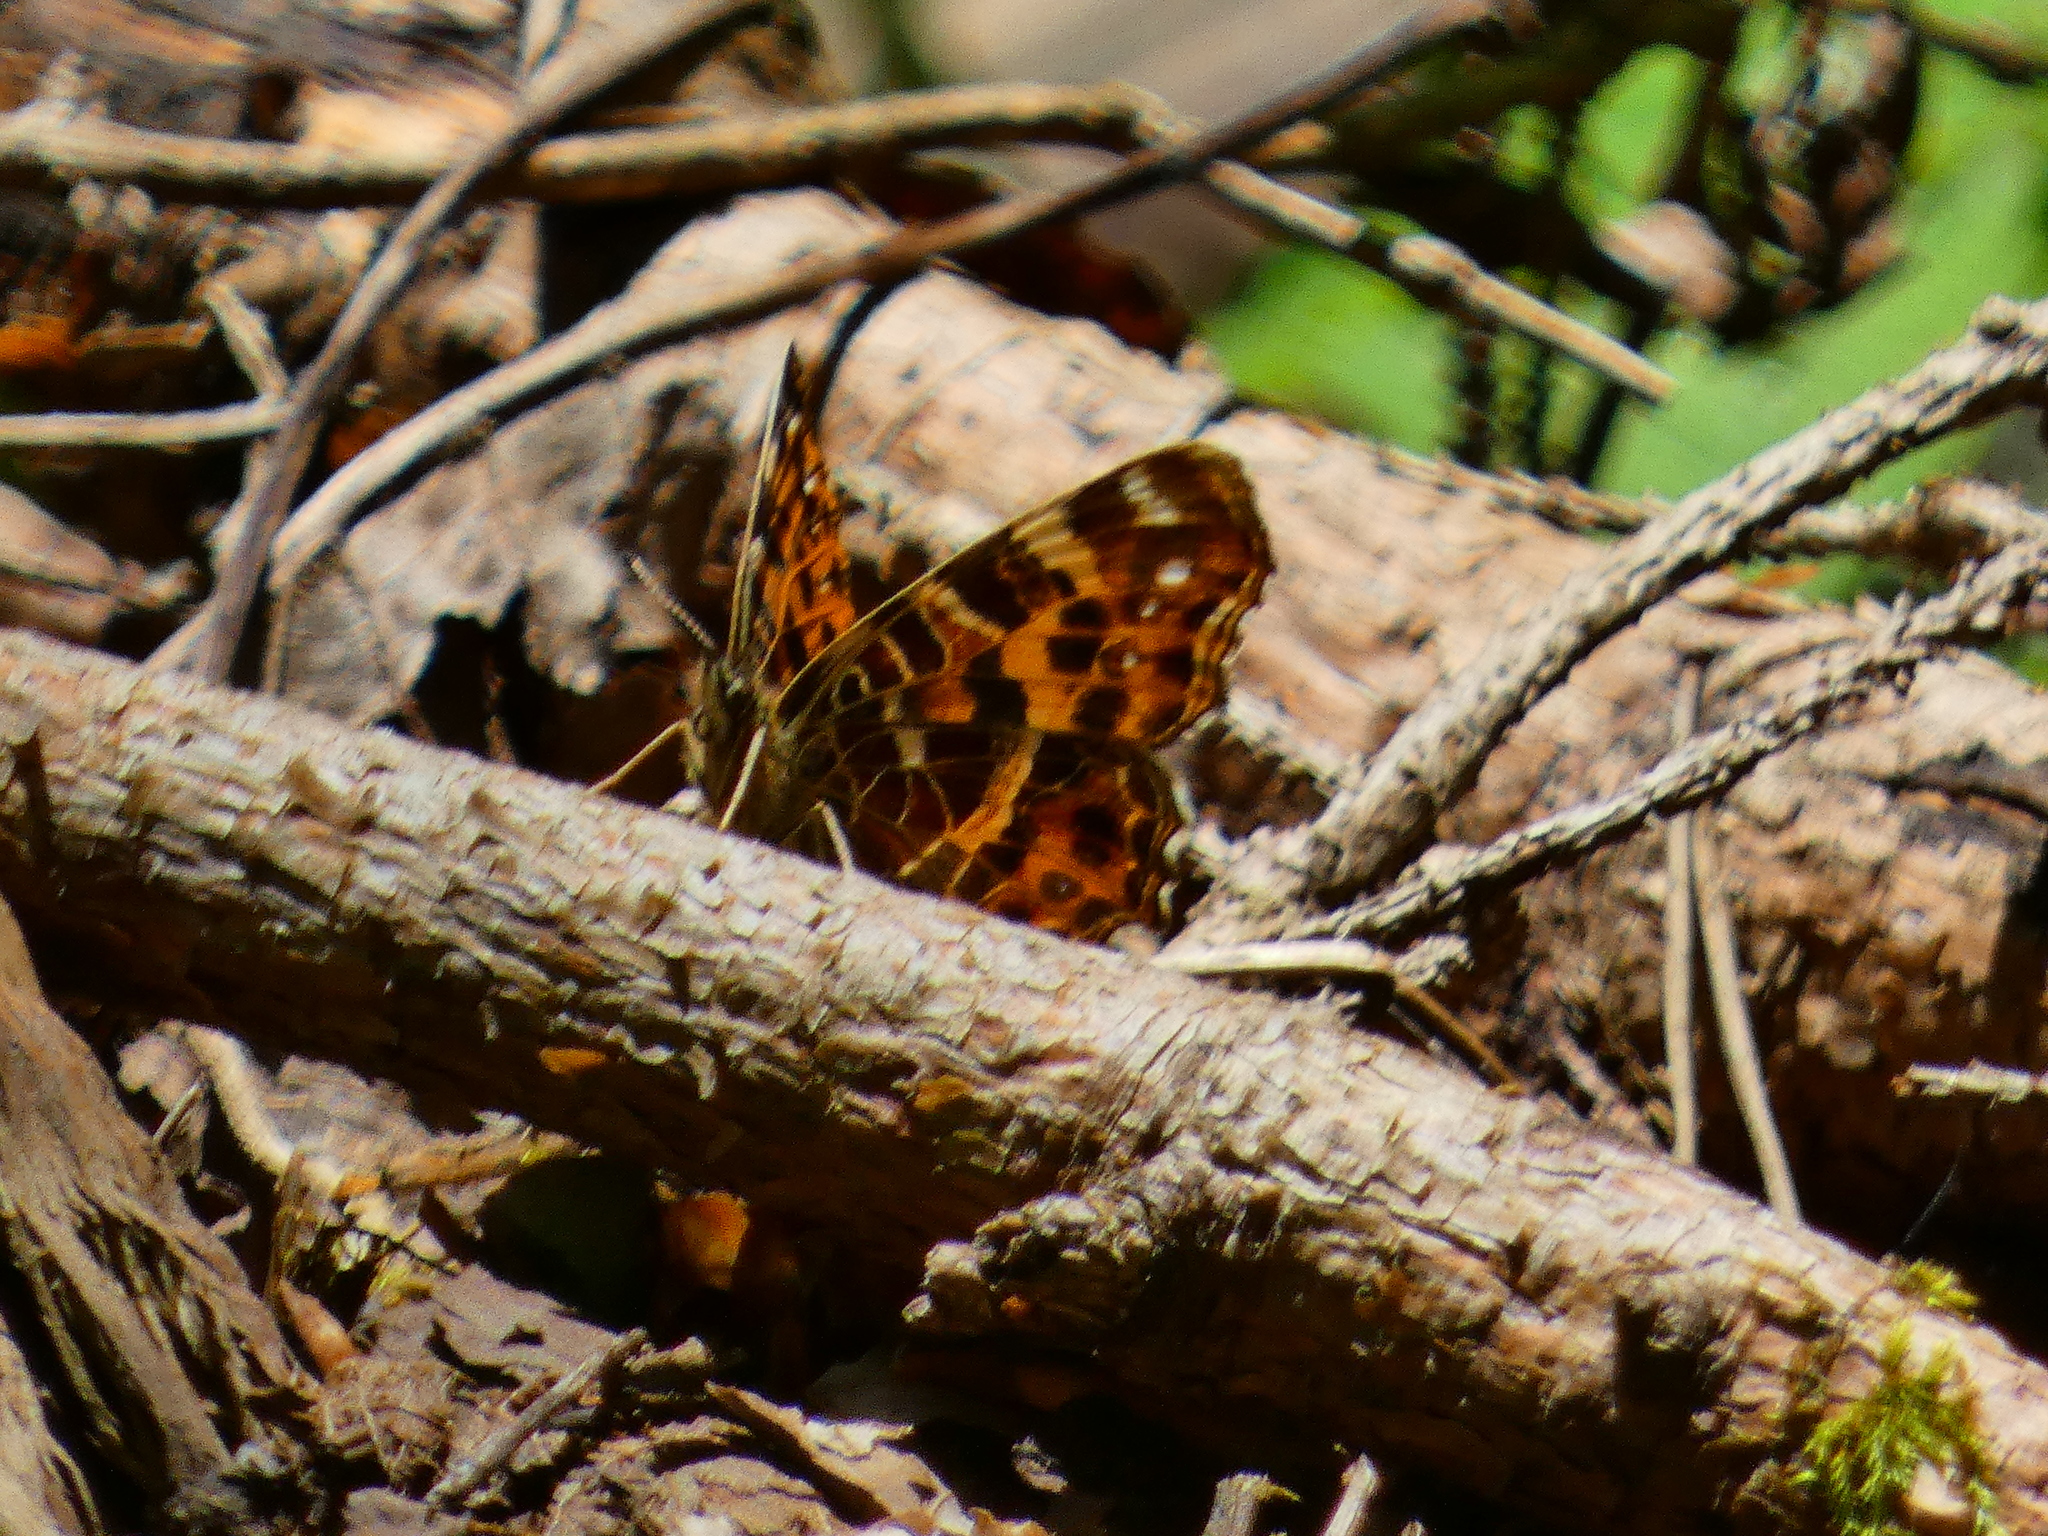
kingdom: Animalia
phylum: Arthropoda
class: Insecta
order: Lepidoptera
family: Nymphalidae
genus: Araschnia
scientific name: Araschnia levana
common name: Map butterfly
